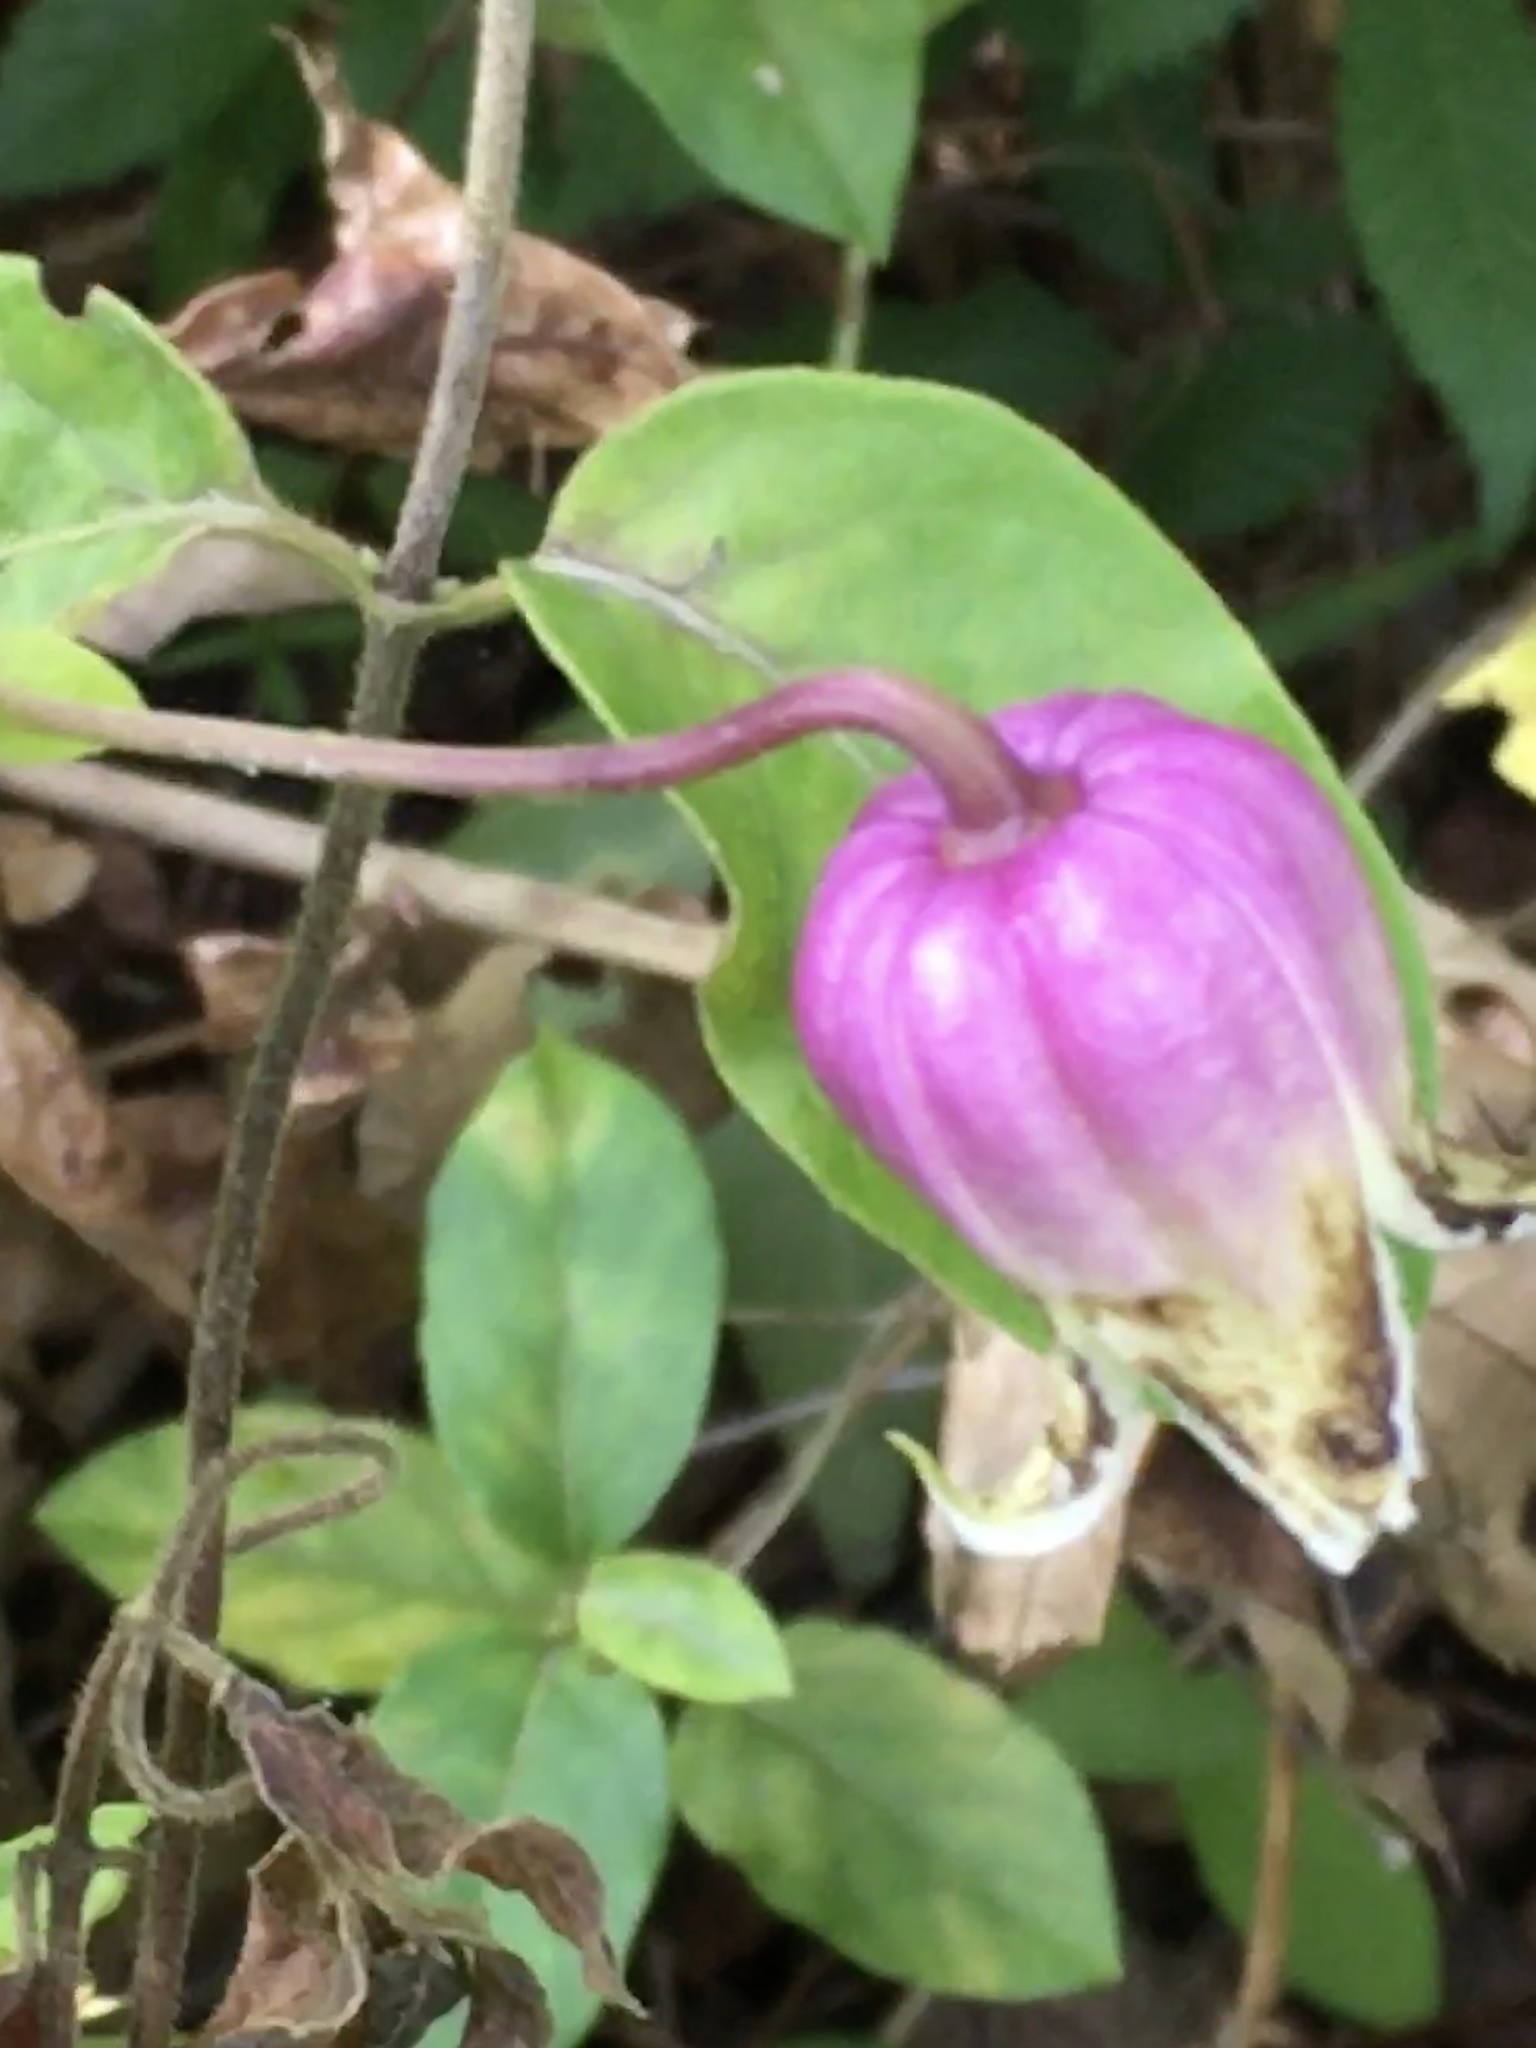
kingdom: Plantae
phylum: Tracheophyta
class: Magnoliopsida
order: Ranunculales
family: Ranunculaceae
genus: Clematis
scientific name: Clematis viorna
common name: Leather-flower
